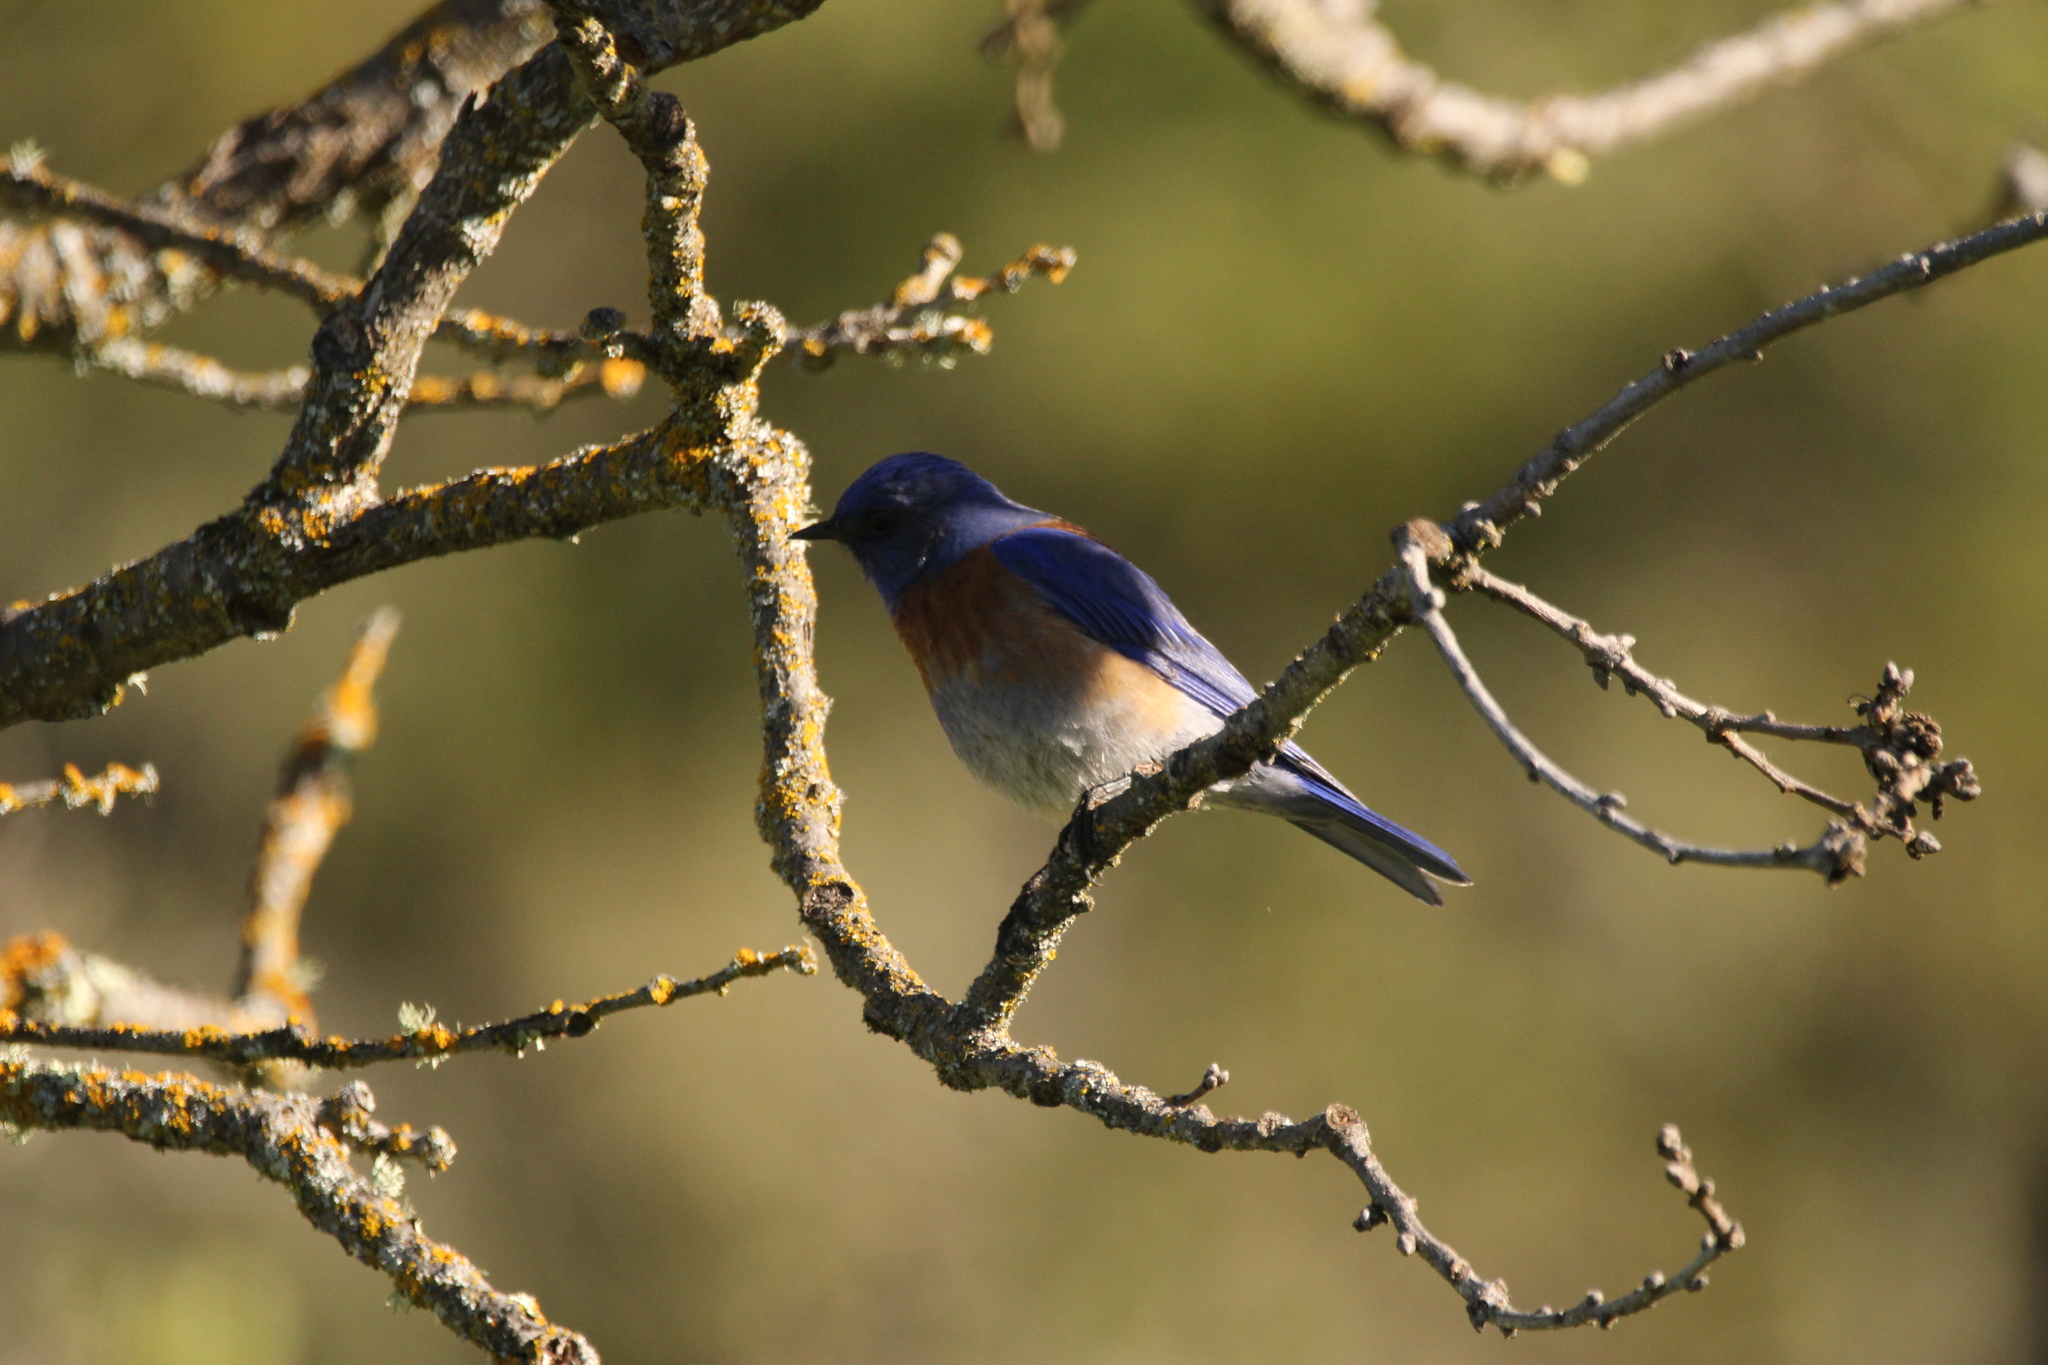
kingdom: Animalia
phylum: Chordata
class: Aves
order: Passeriformes
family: Turdidae
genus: Sialia
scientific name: Sialia mexicana
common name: Western bluebird
